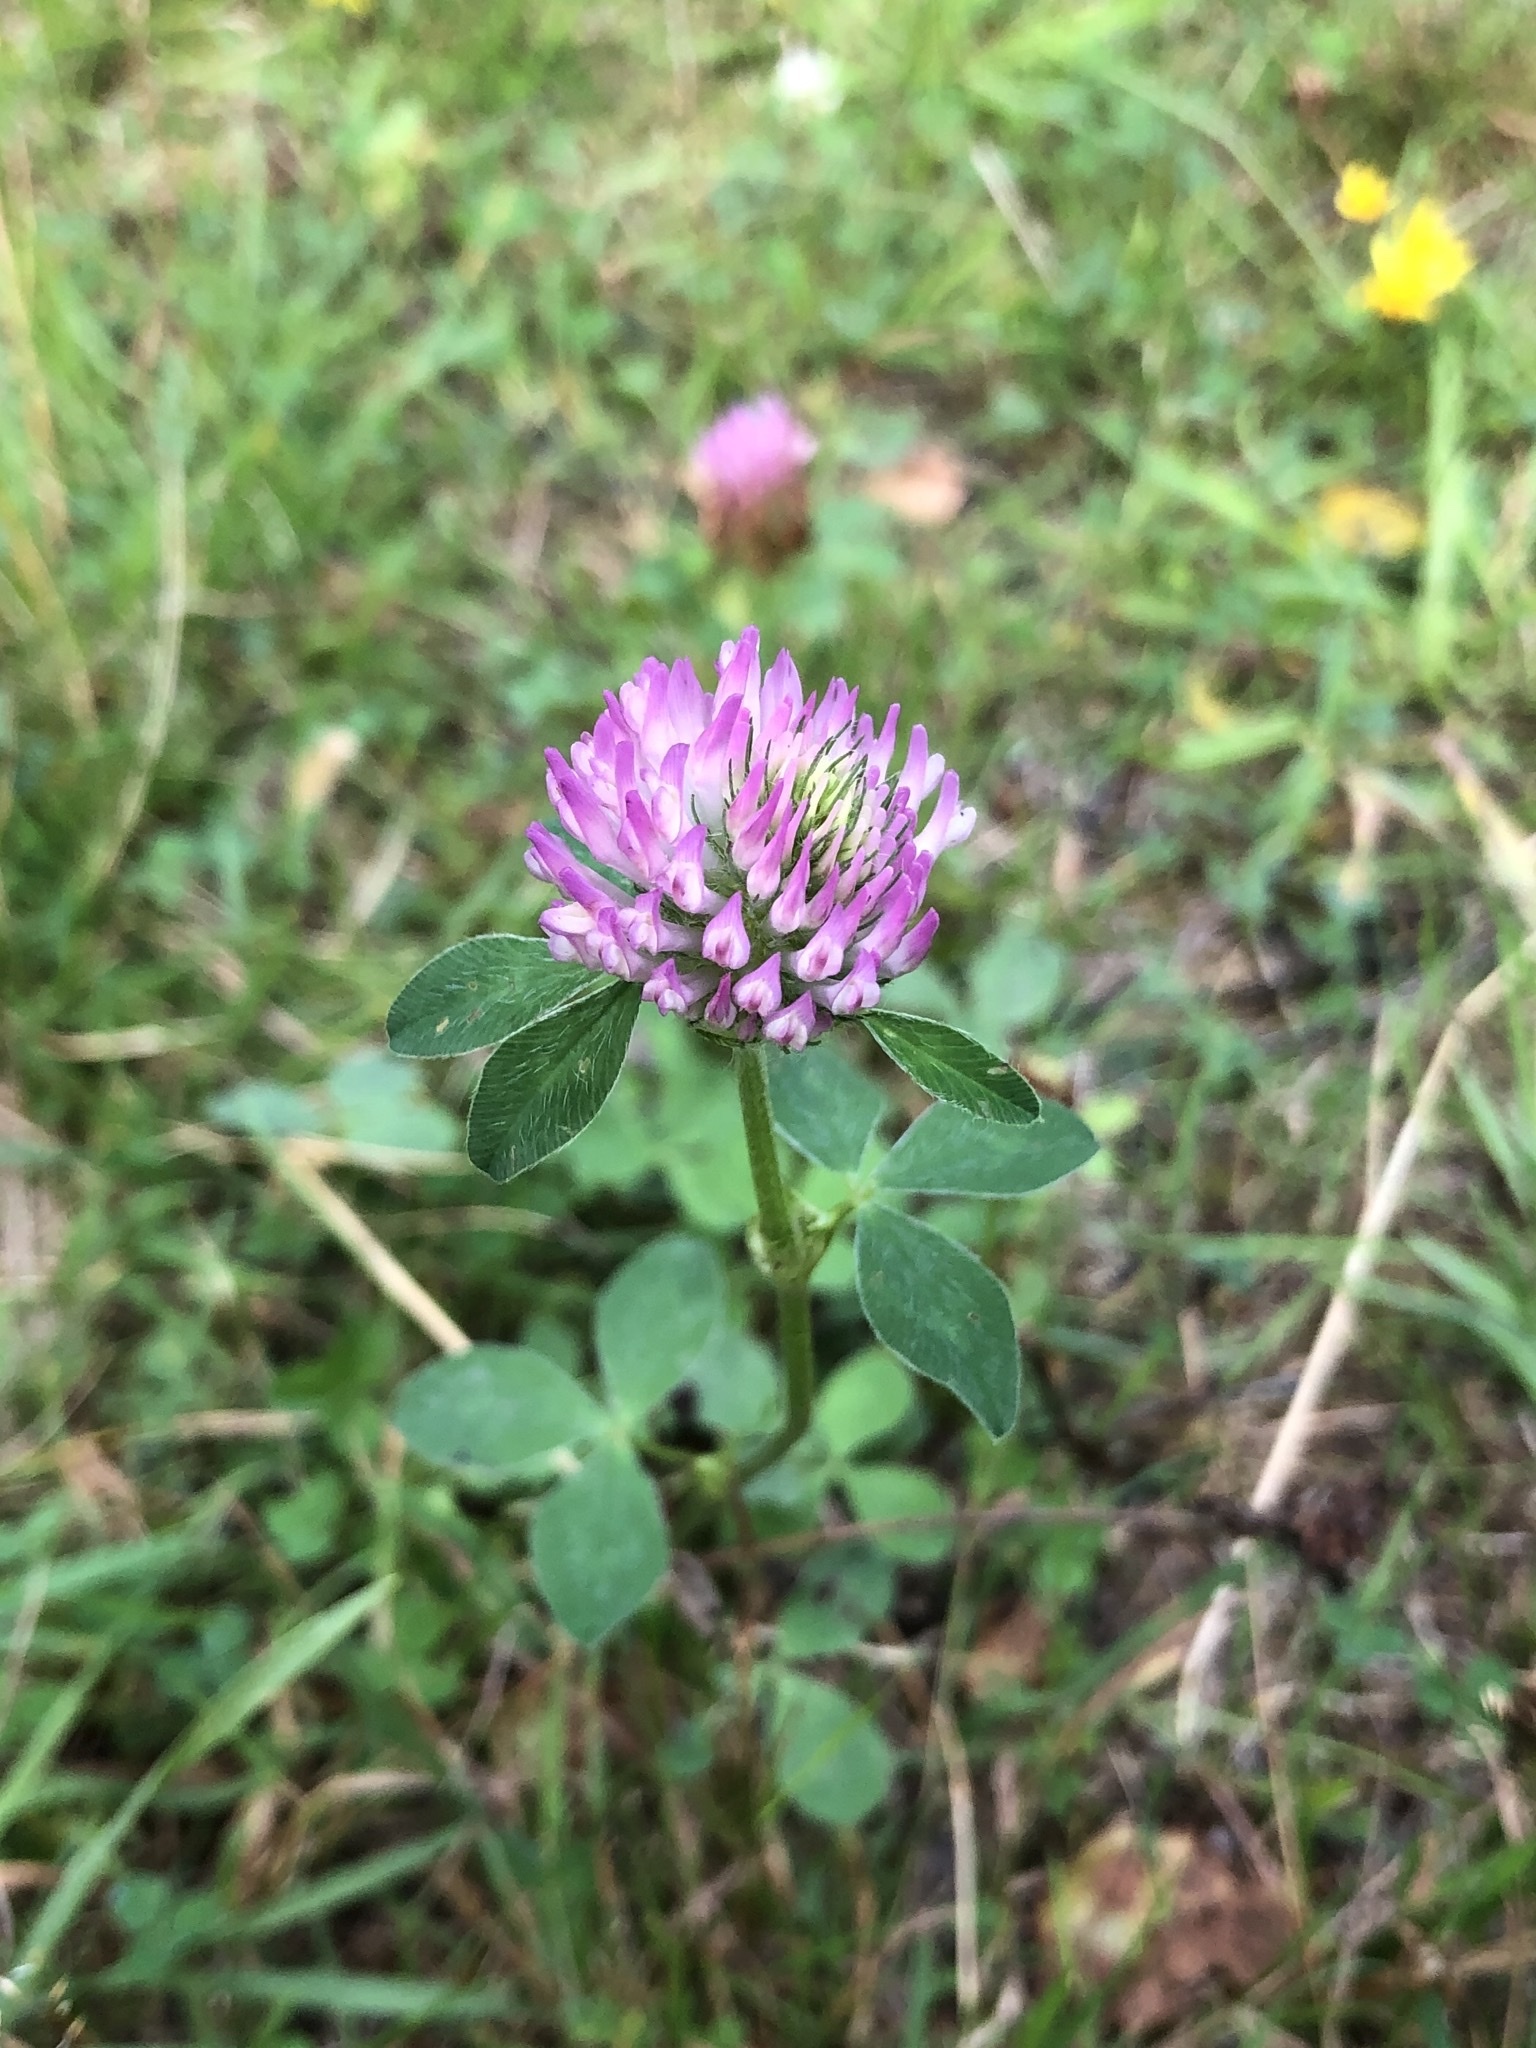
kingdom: Plantae
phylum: Tracheophyta
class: Magnoliopsida
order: Fabales
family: Fabaceae
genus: Trifolium
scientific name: Trifolium pratense
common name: Red clover
